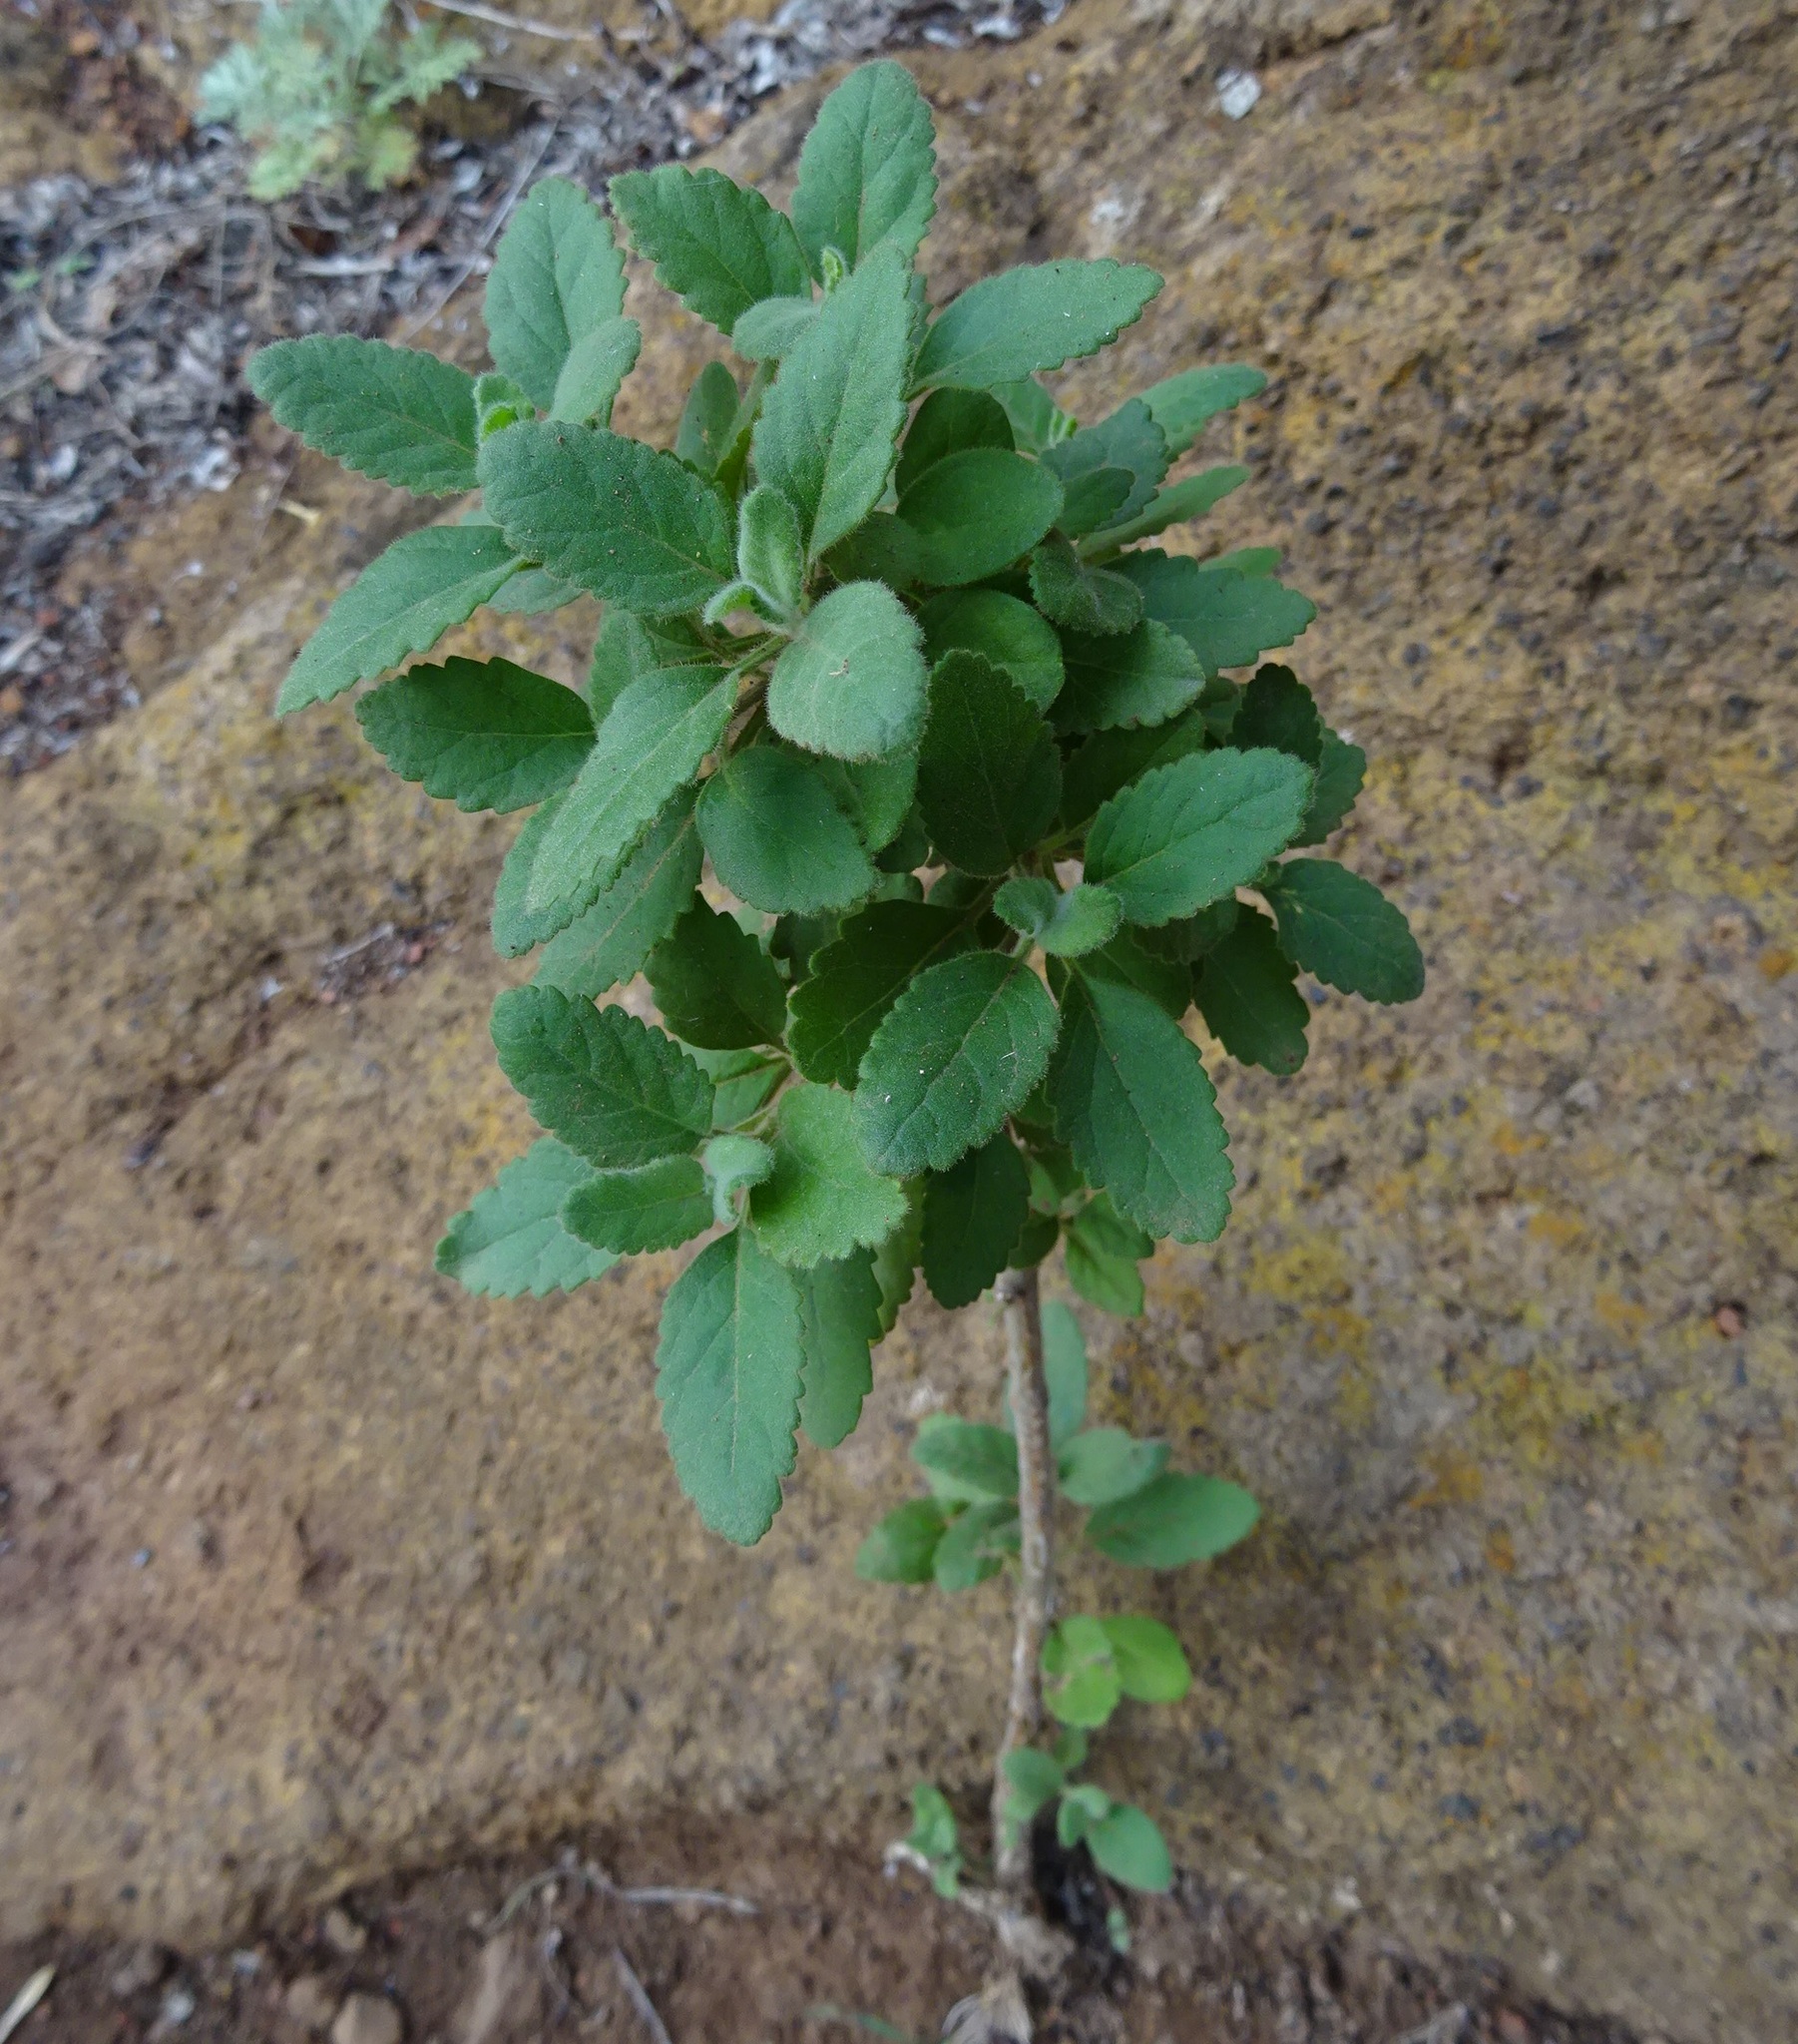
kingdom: Plantae
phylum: Tracheophyta
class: Magnoliopsida
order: Lamiales
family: Lamiaceae
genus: Bystropogon
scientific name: Bystropogon canariensis
